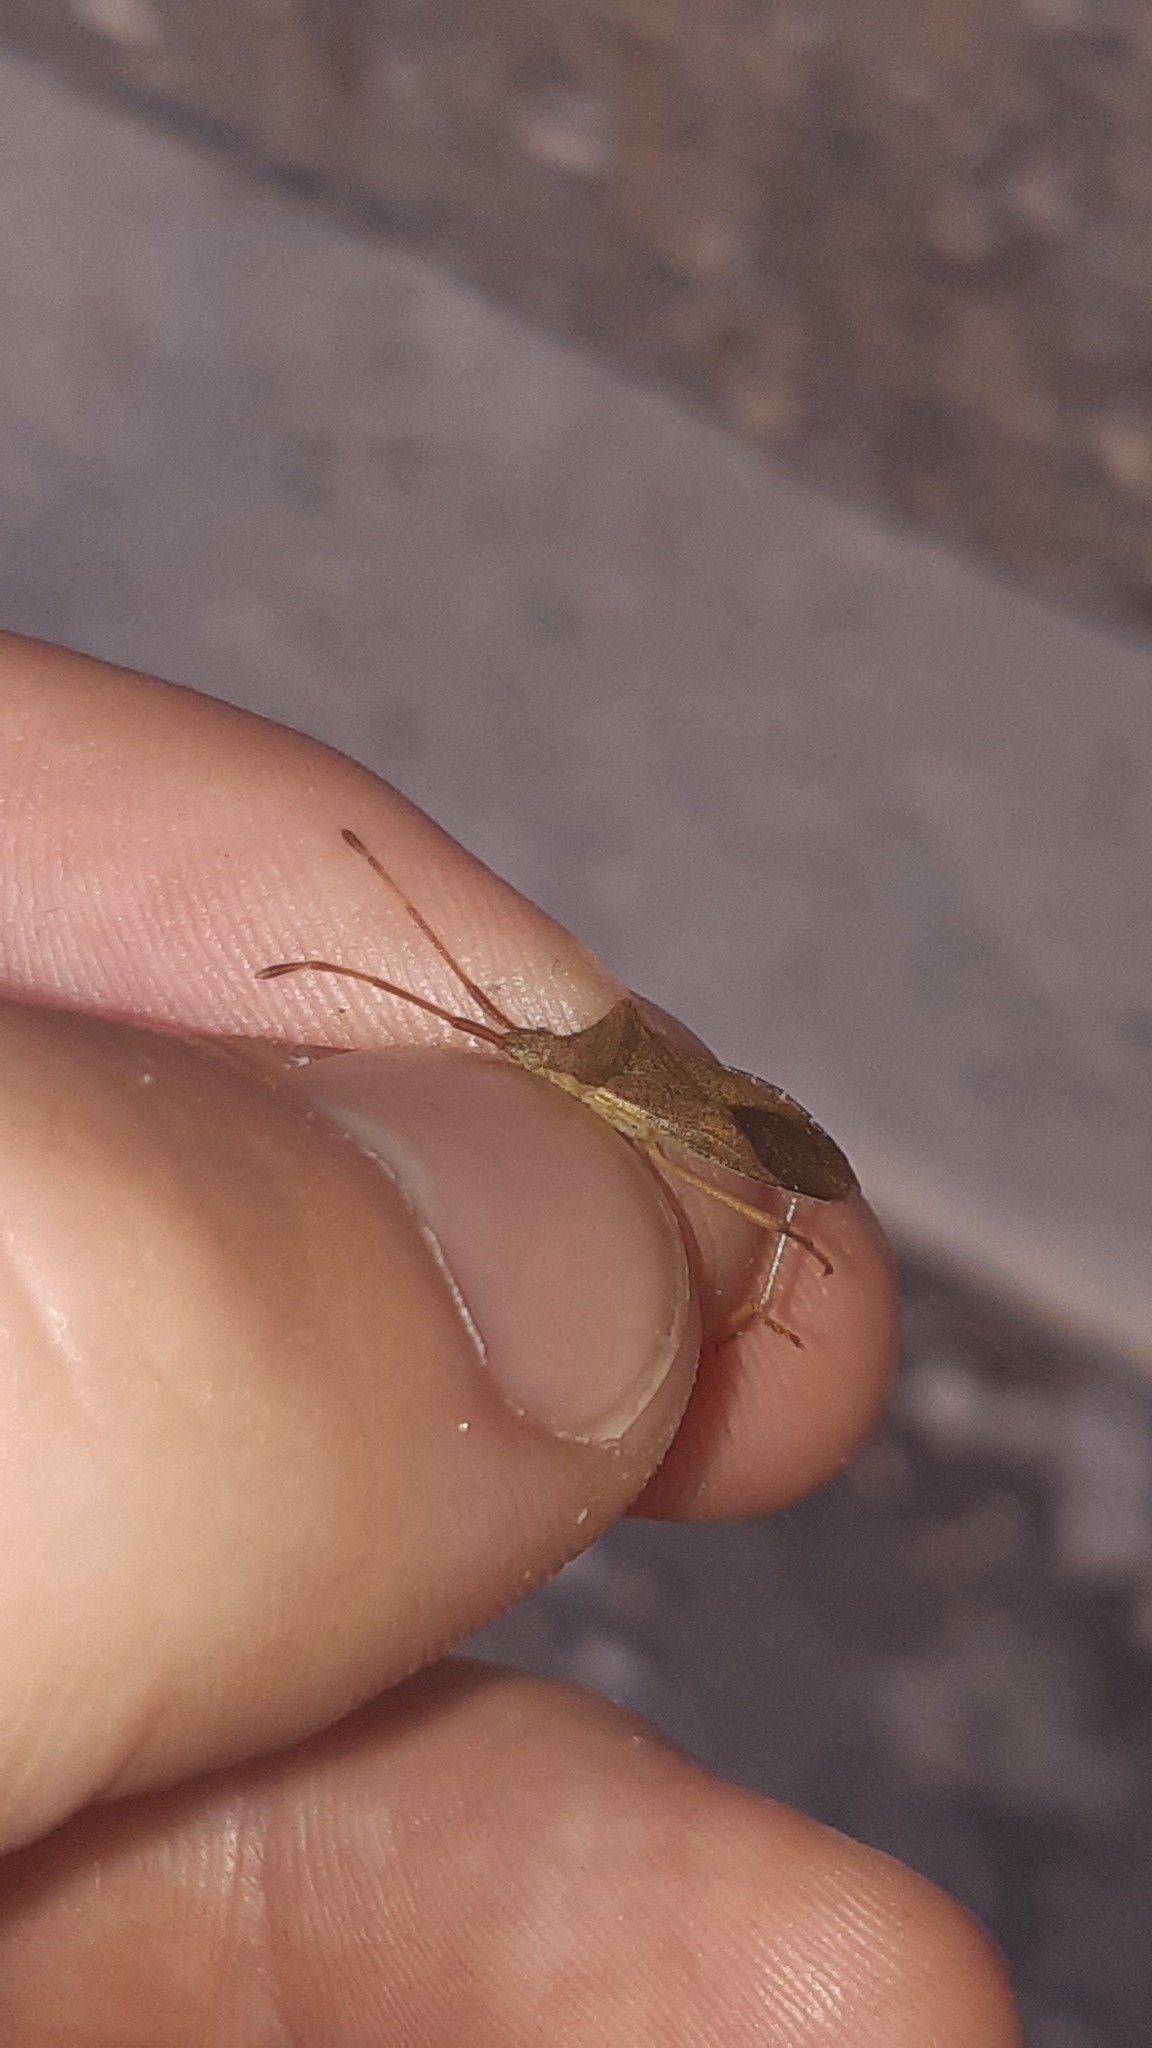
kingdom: Animalia
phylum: Arthropoda
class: Insecta
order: Hemiptera
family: Coreidae
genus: Gonocerus
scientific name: Gonocerus acuteangulatus
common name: Box bug
